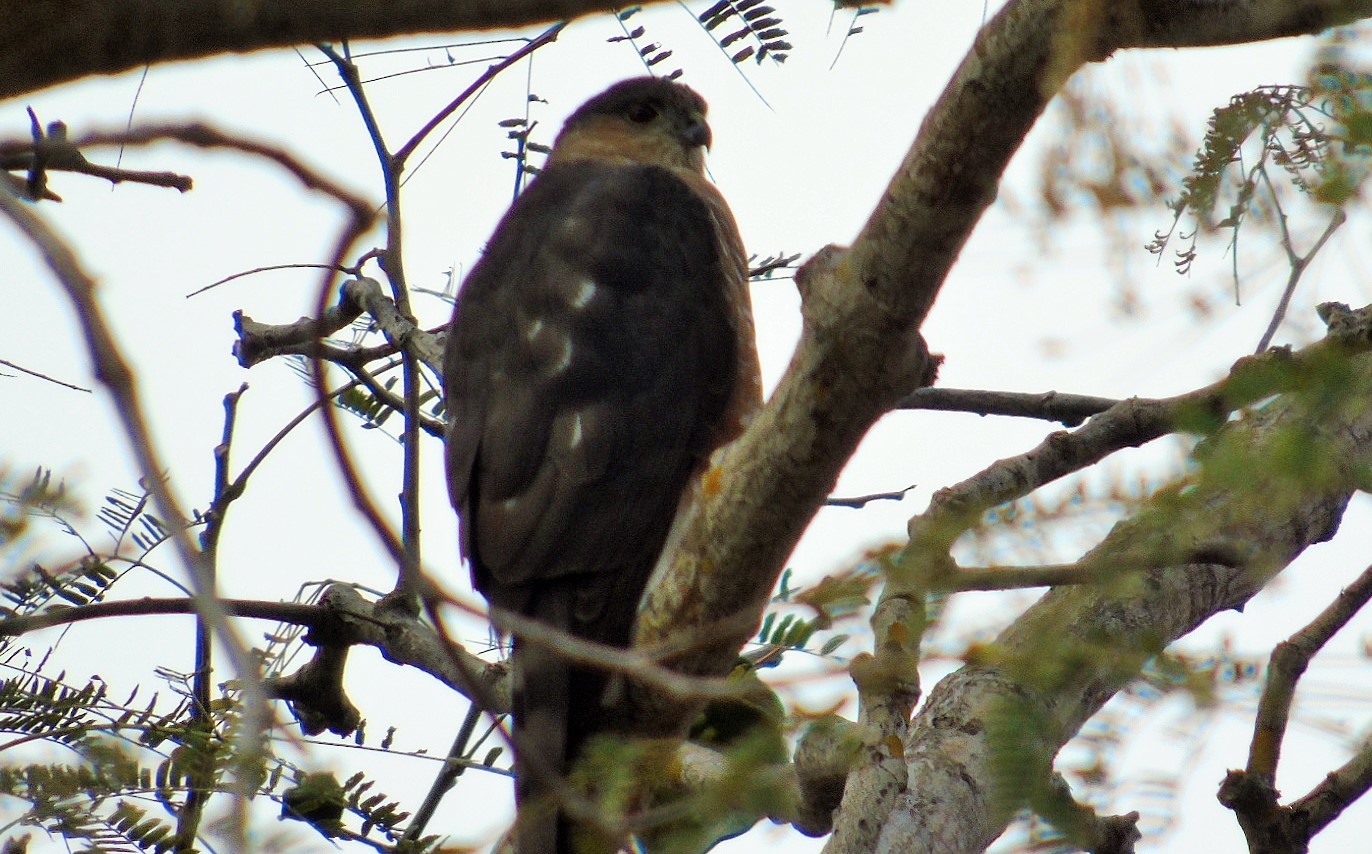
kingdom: Animalia
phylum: Chordata
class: Aves
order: Accipitriformes
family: Accipitridae
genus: Accipiter
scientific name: Accipiter cooperii
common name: Cooper's hawk
